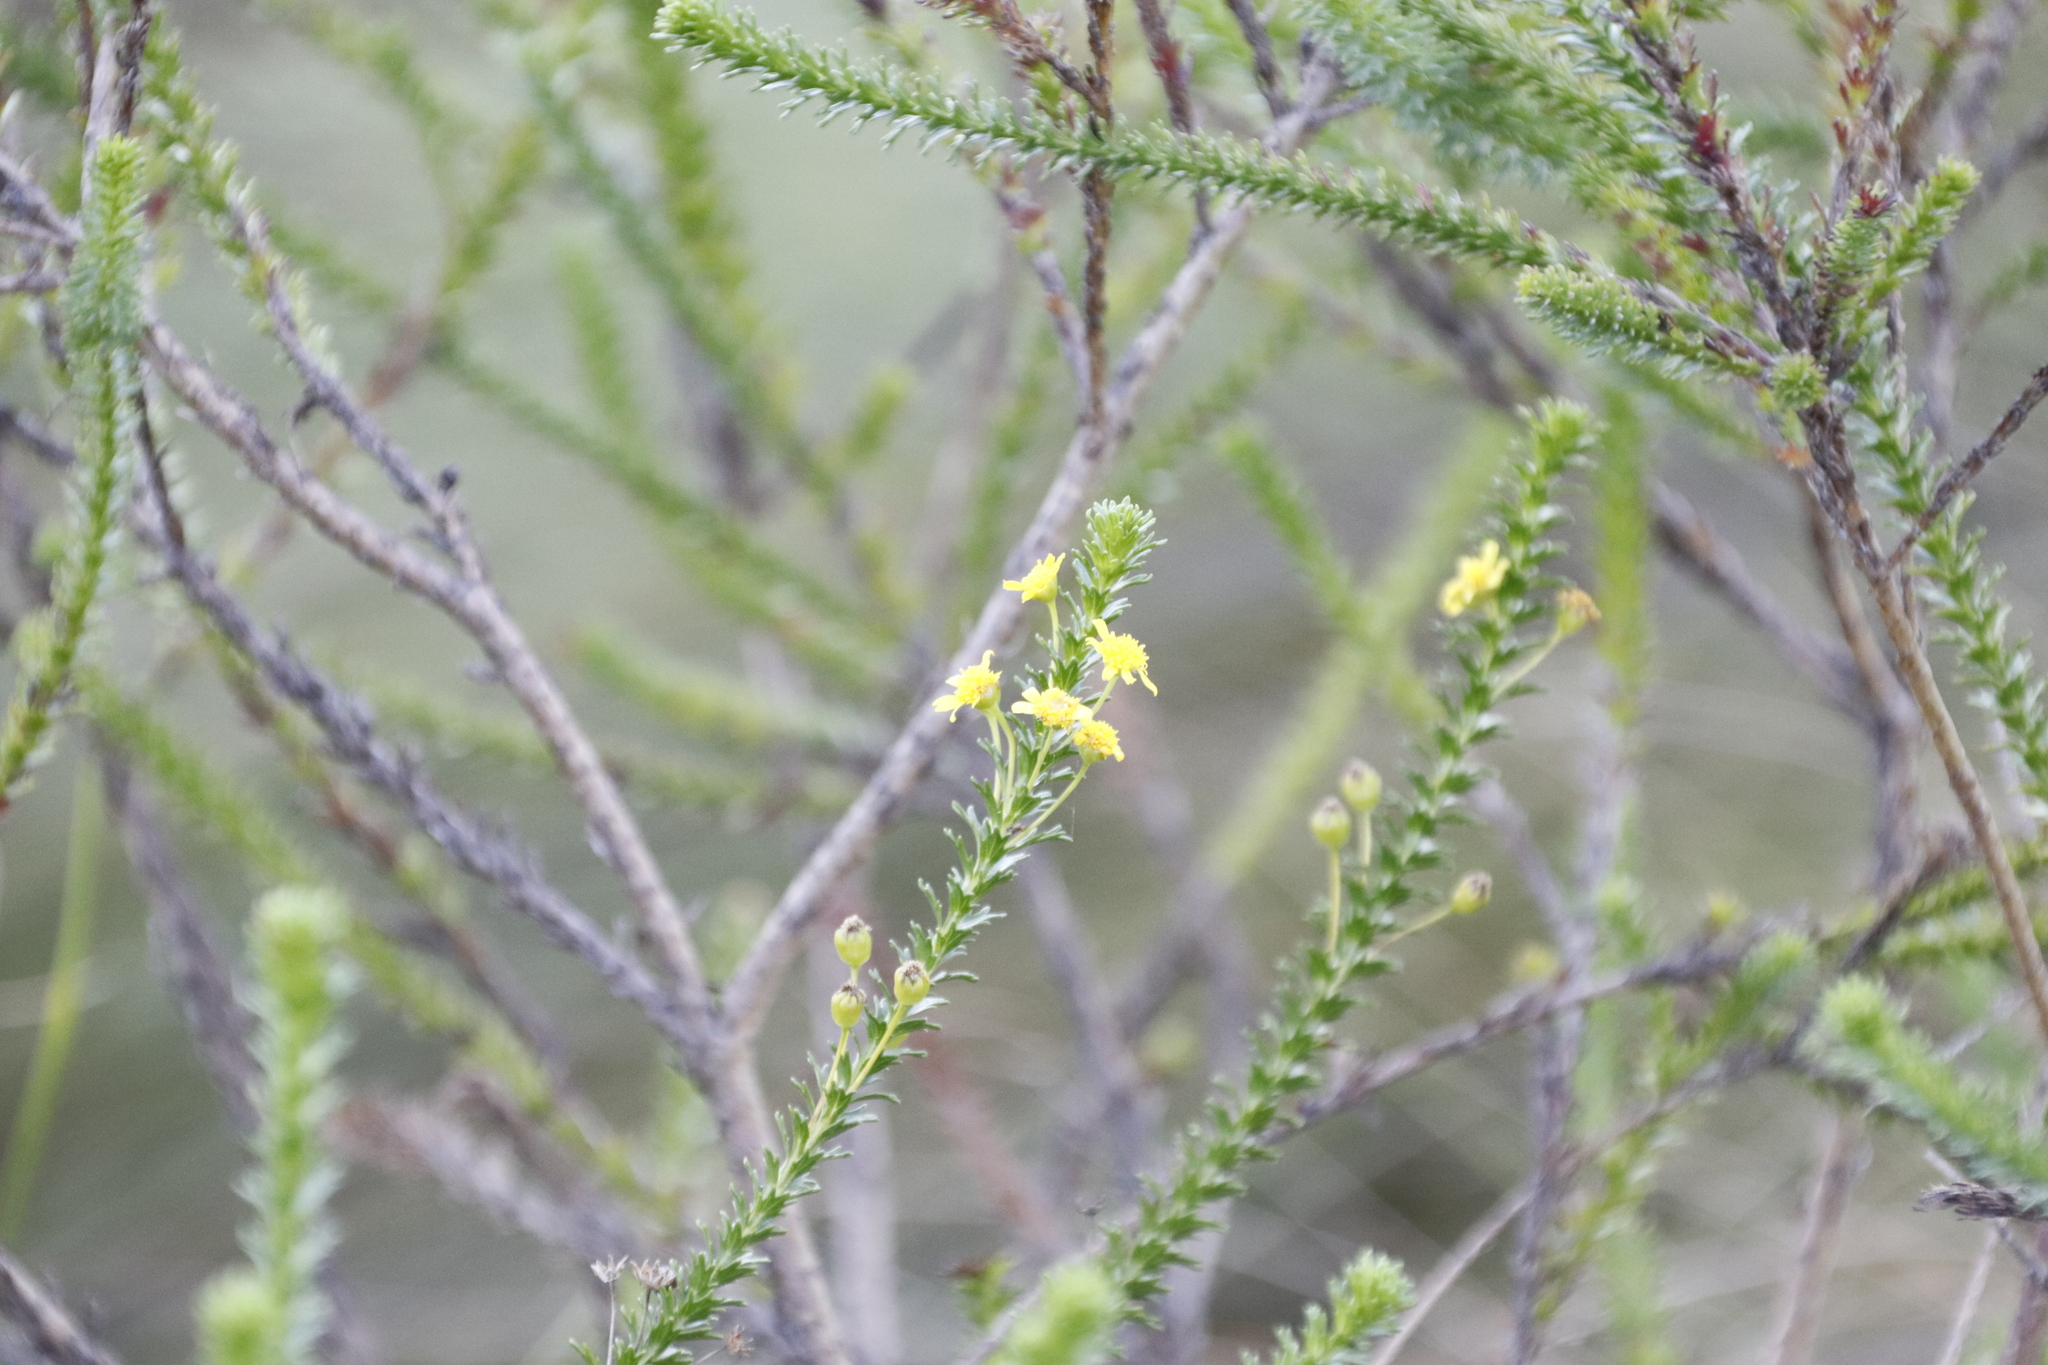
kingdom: Plantae
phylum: Tracheophyta
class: Magnoliopsida
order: Asterales
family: Asteraceae
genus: Euryops
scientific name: Euryops virgineus
